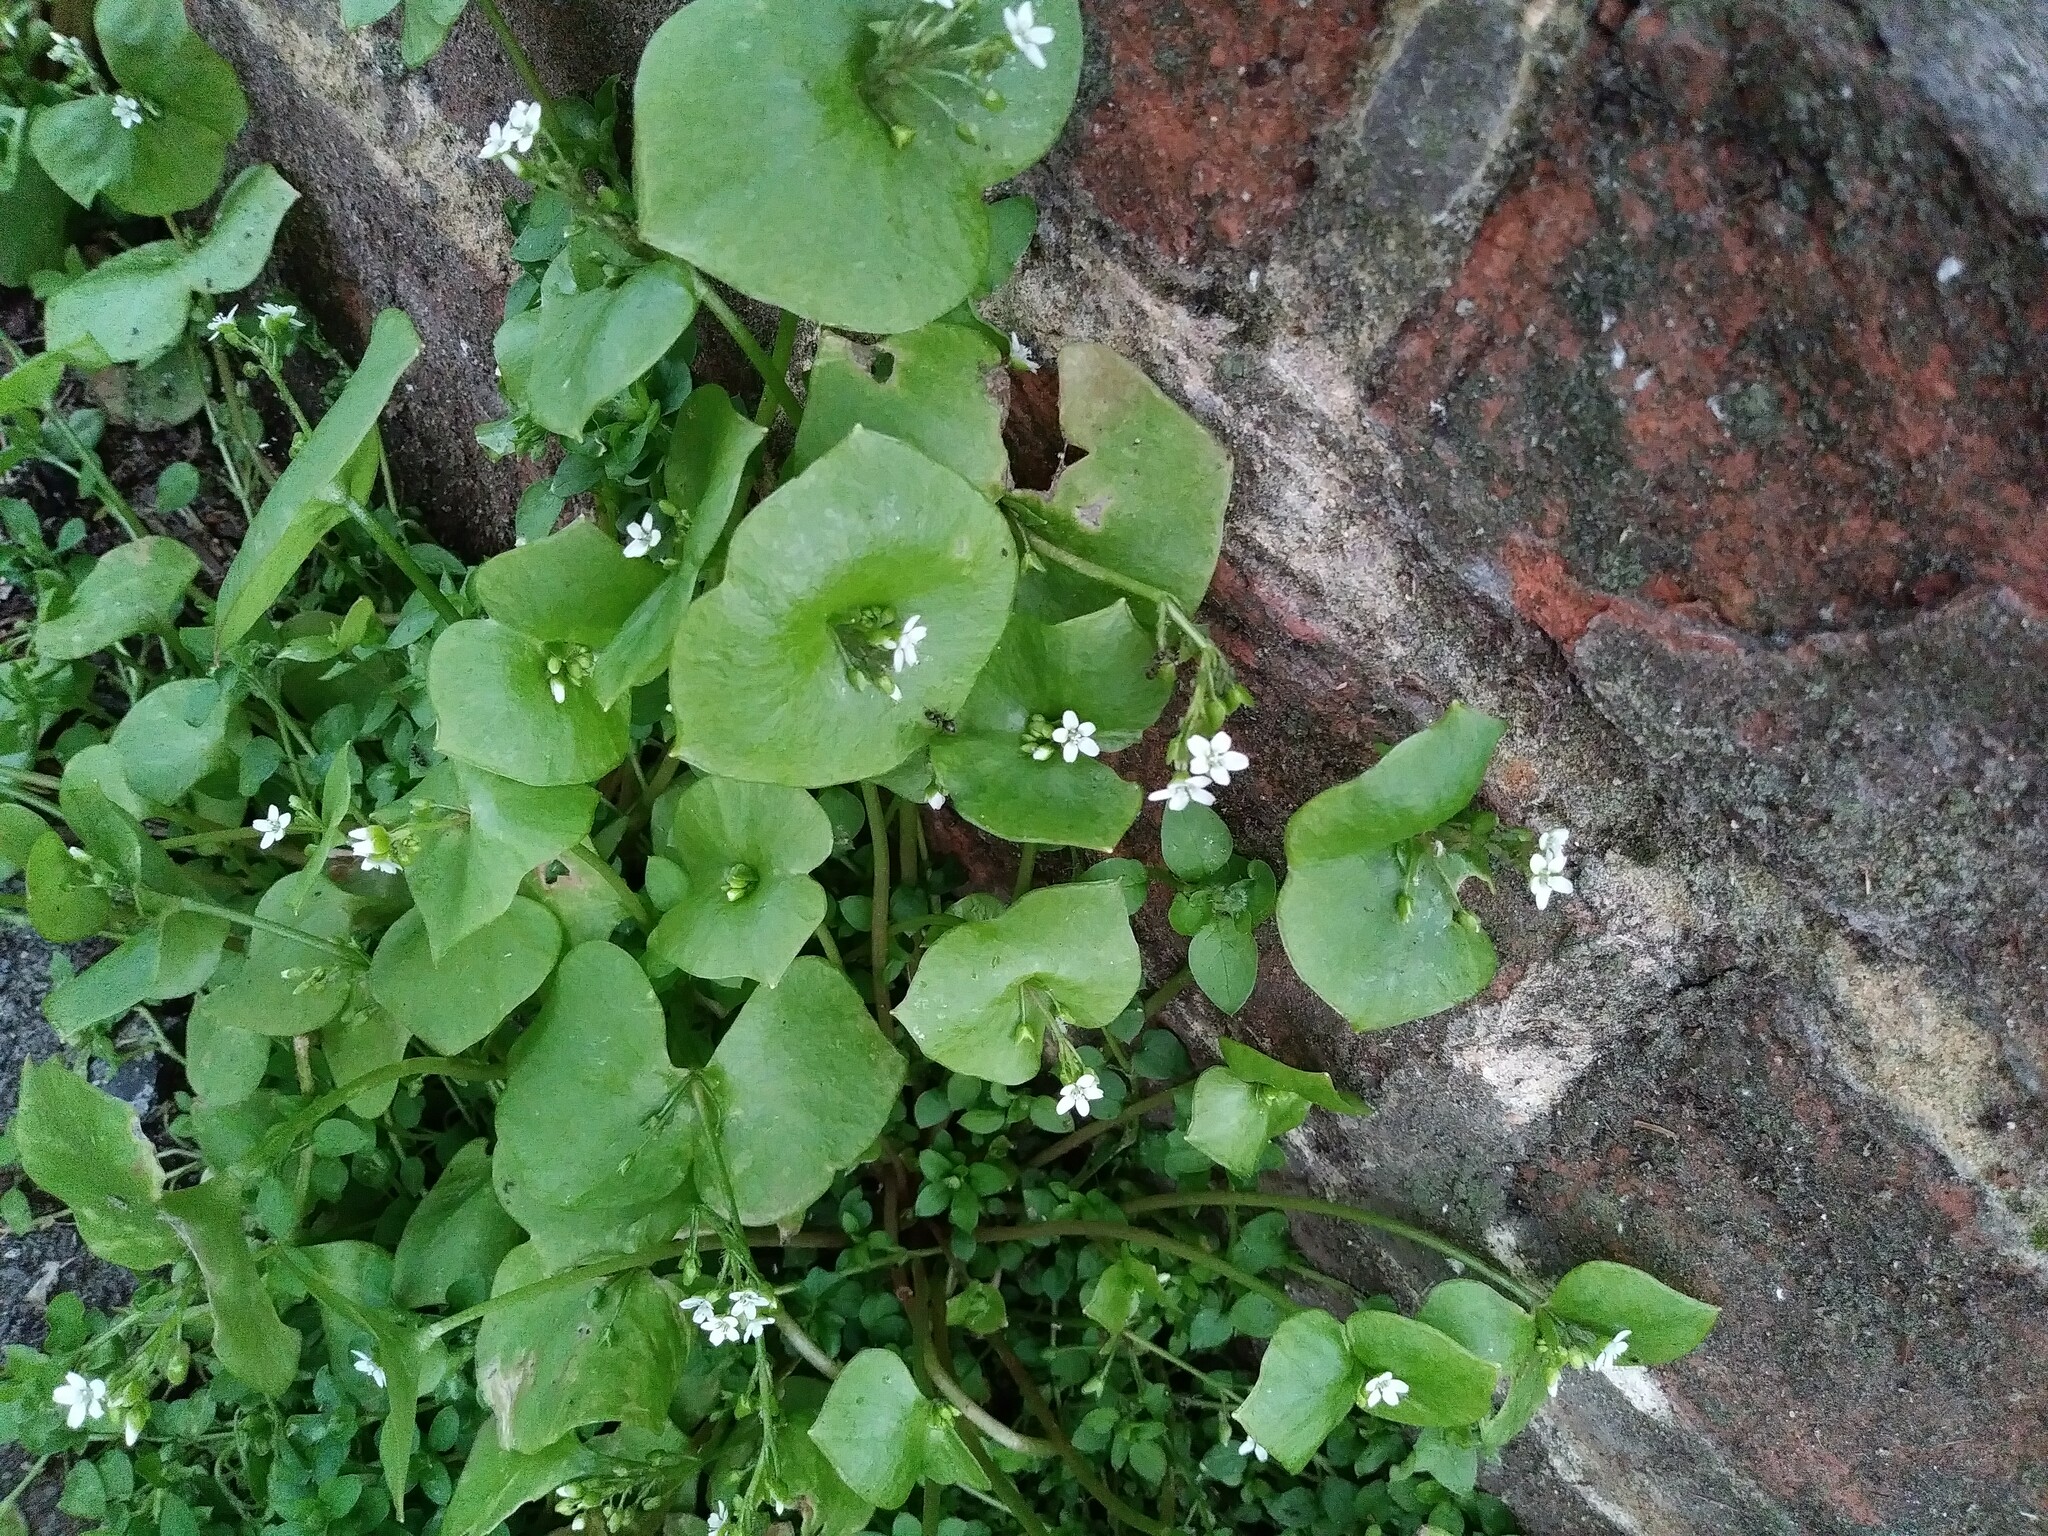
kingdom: Plantae
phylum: Tracheophyta
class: Magnoliopsida
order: Caryophyllales
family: Montiaceae
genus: Claytonia
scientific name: Claytonia perfoliata
